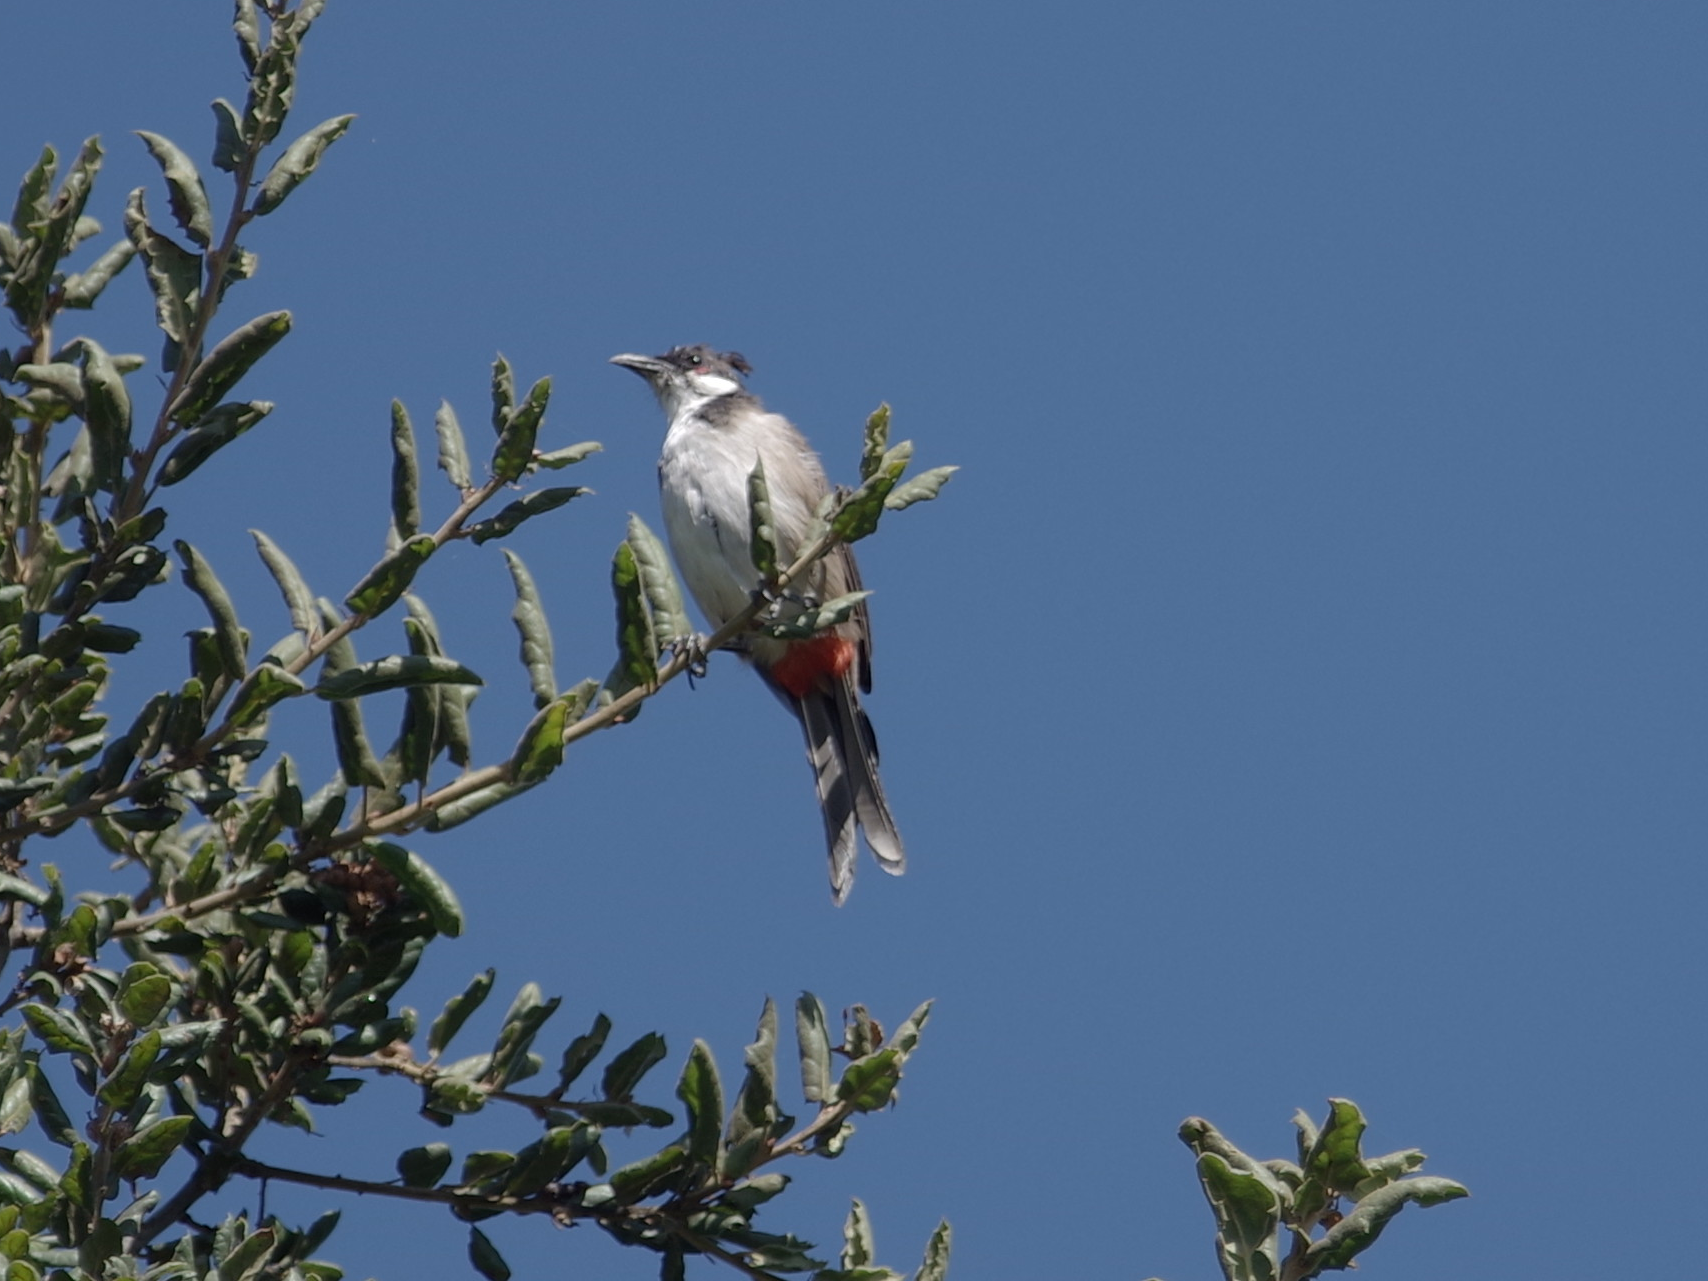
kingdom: Animalia
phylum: Chordata
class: Aves
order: Passeriformes
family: Pycnonotidae
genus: Pycnonotus
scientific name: Pycnonotus jocosus
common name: Red-whiskered bulbul
